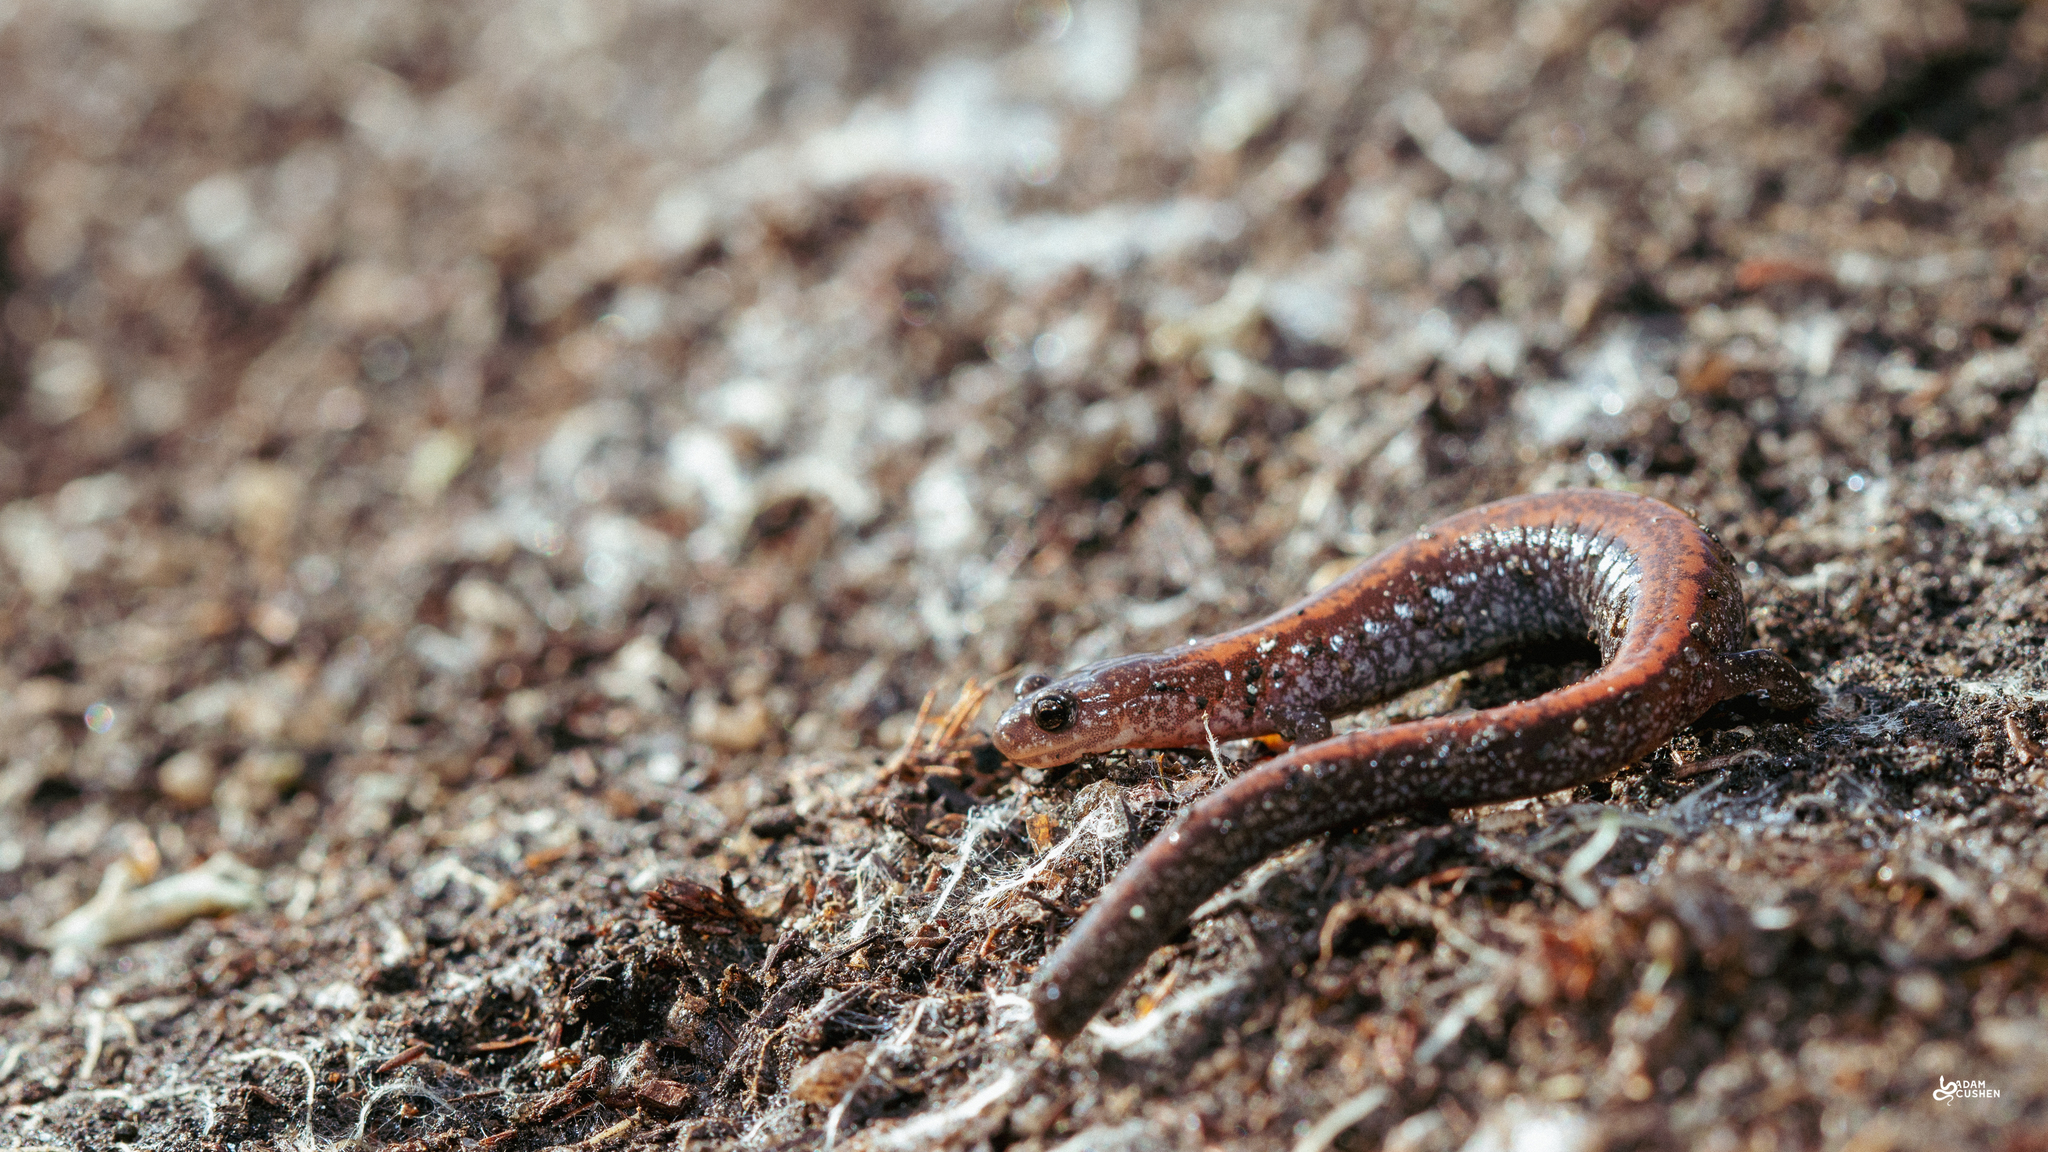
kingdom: Animalia
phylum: Chordata
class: Amphibia
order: Caudata
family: Plethodontidae
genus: Plethodon
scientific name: Plethodon cinereus
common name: Redback salamander
